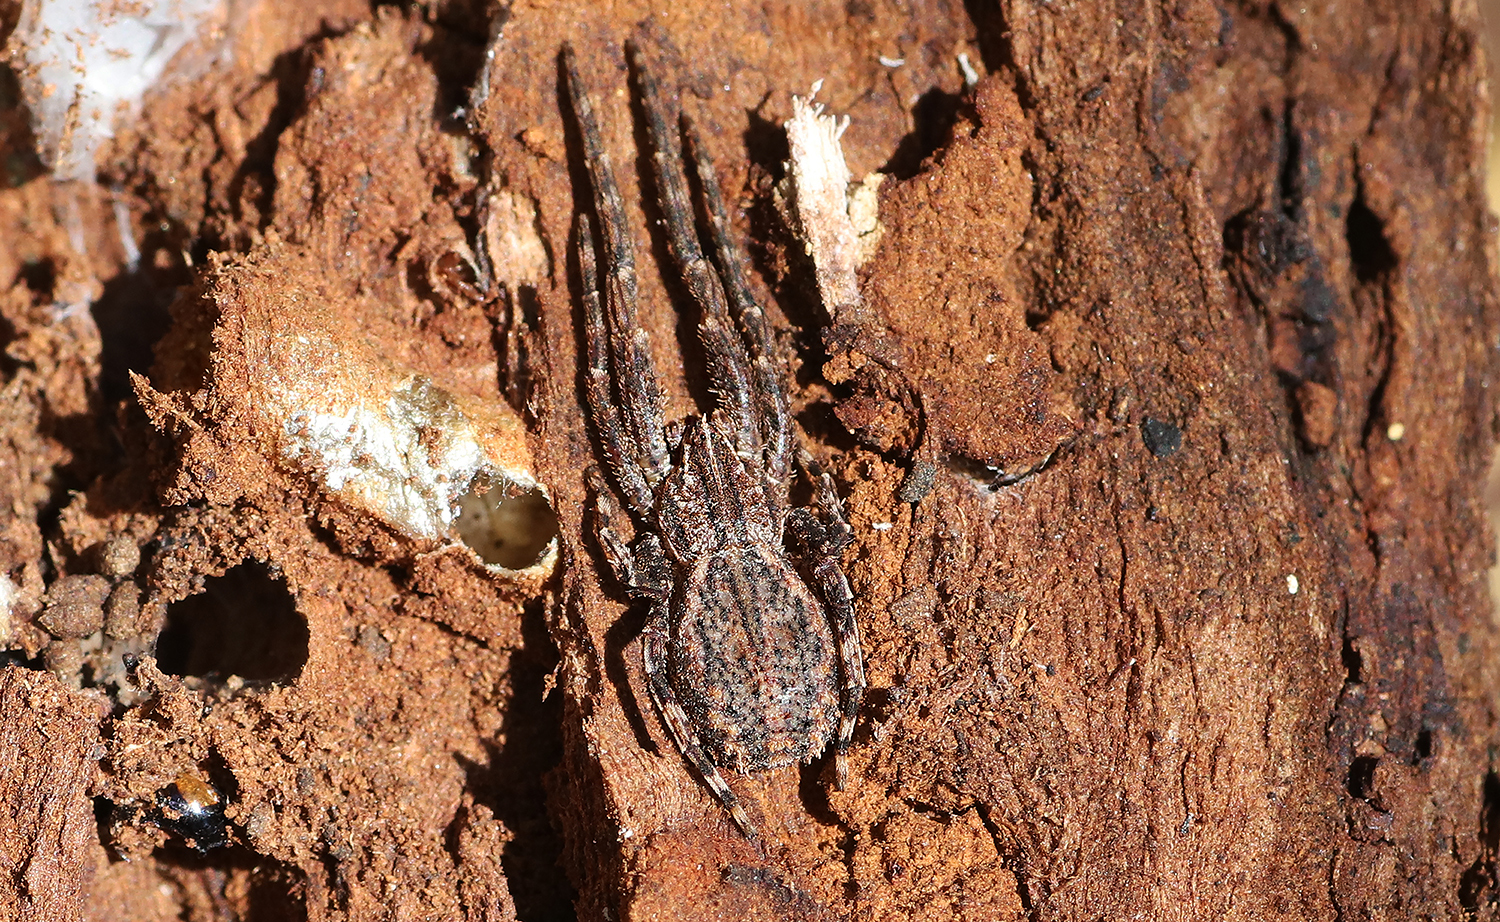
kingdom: Animalia
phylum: Arthropoda
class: Arachnida
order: Araneae
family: Thomisidae
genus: Isala
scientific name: Isala cambridgei
